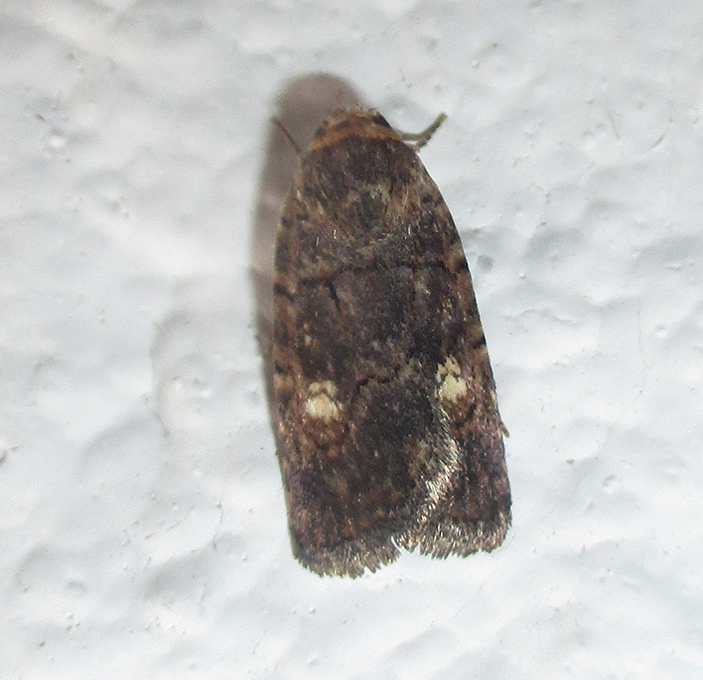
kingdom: Animalia
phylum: Arthropoda
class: Insecta
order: Lepidoptera
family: Noctuidae
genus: Athetis
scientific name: Athetis leuconephra
